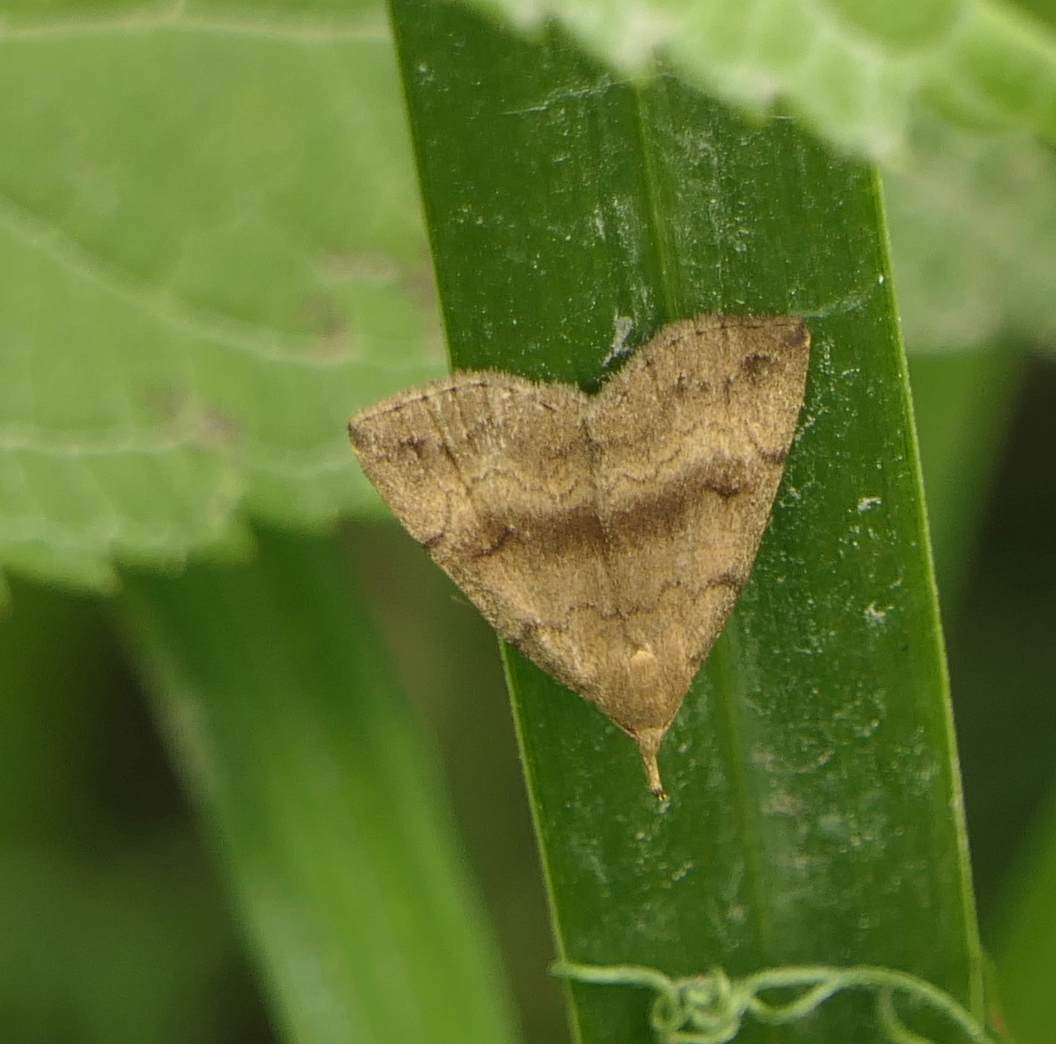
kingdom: Animalia
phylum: Arthropoda
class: Insecta
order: Lepidoptera
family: Erebidae
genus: Phalaenostola
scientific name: Phalaenostola eumelusalis
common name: Dark phalaenostola moth
